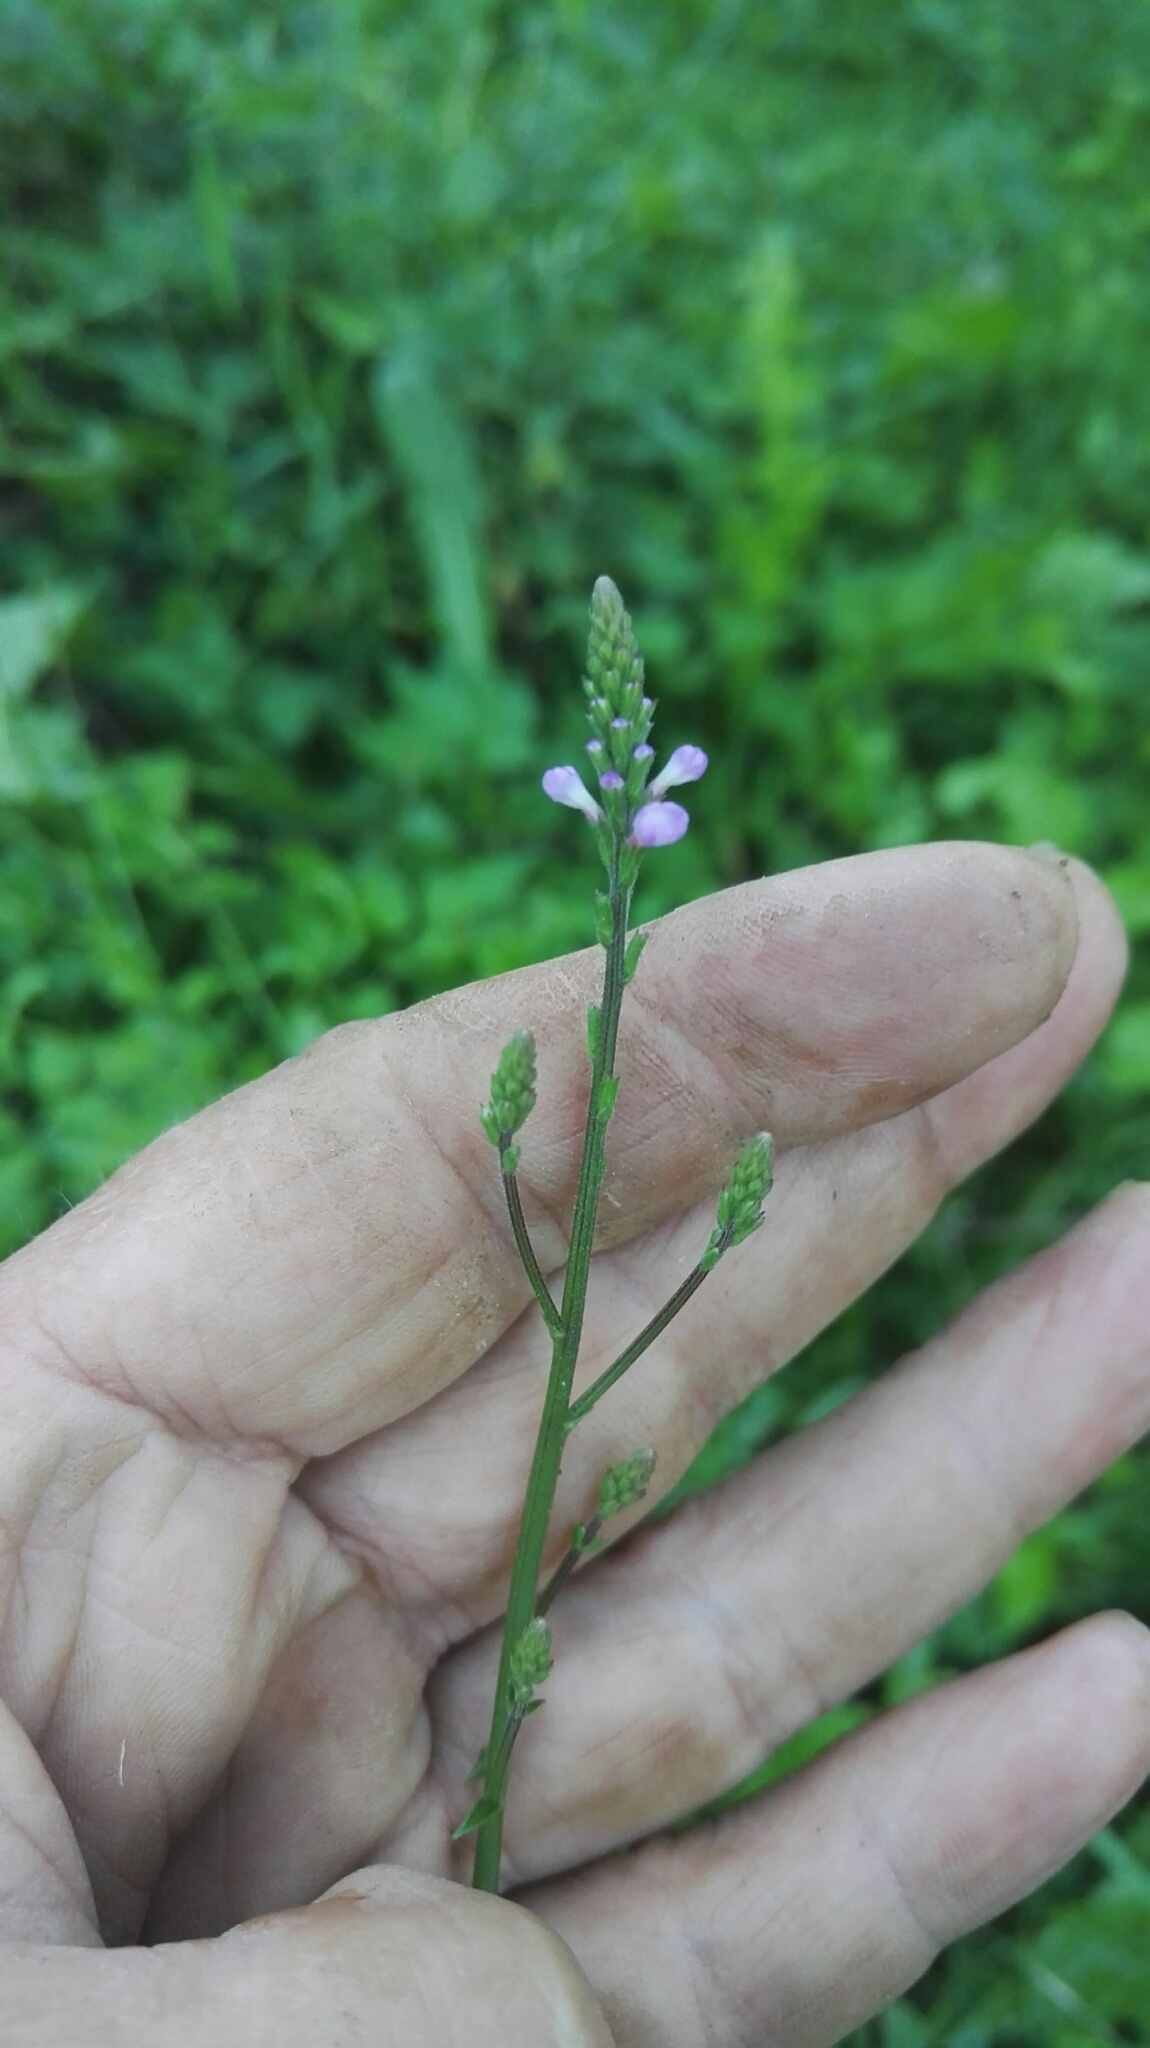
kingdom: Plantae
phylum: Tracheophyta
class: Magnoliopsida
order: Lamiales
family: Verbenaceae
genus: Verbena
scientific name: Verbena officinalis
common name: Vervain
